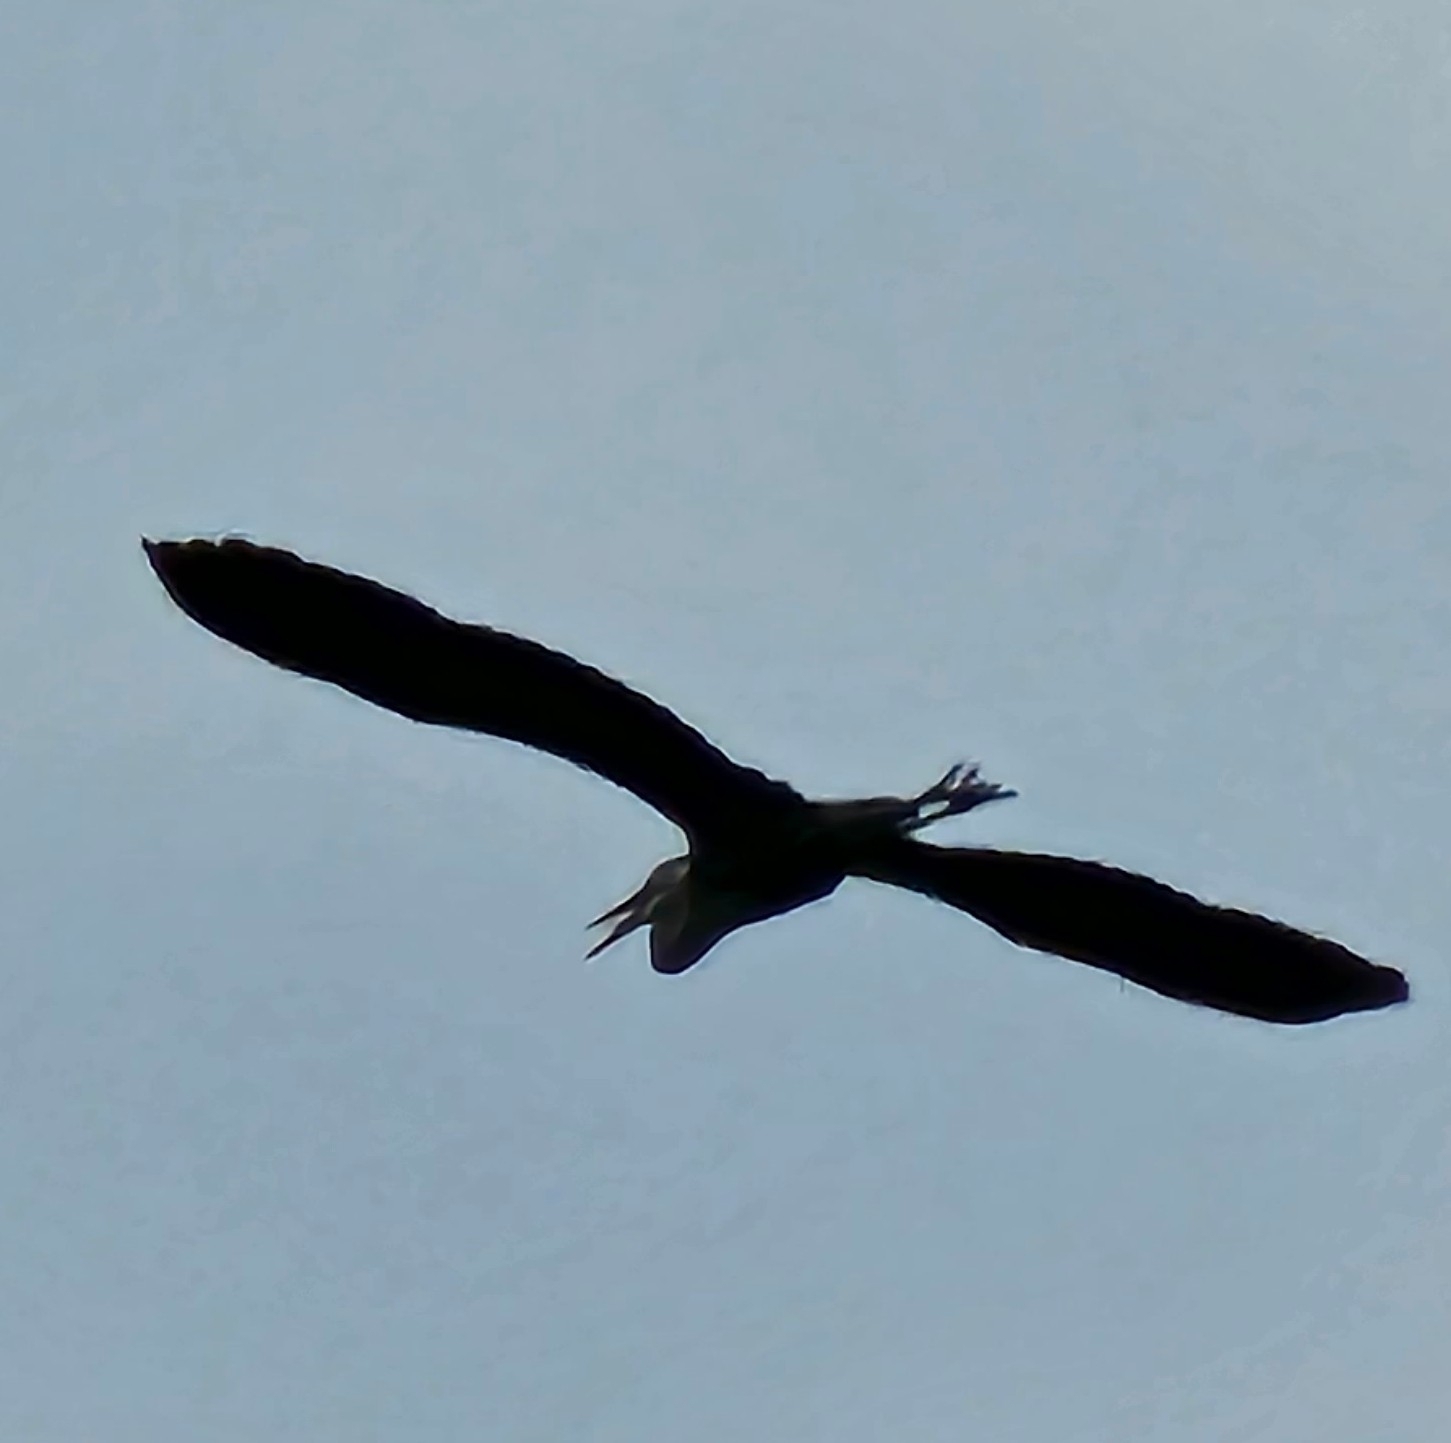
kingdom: Animalia
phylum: Chordata
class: Aves
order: Pelecaniformes
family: Ardeidae
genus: Ardea
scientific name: Ardea herodias
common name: Great blue heron
